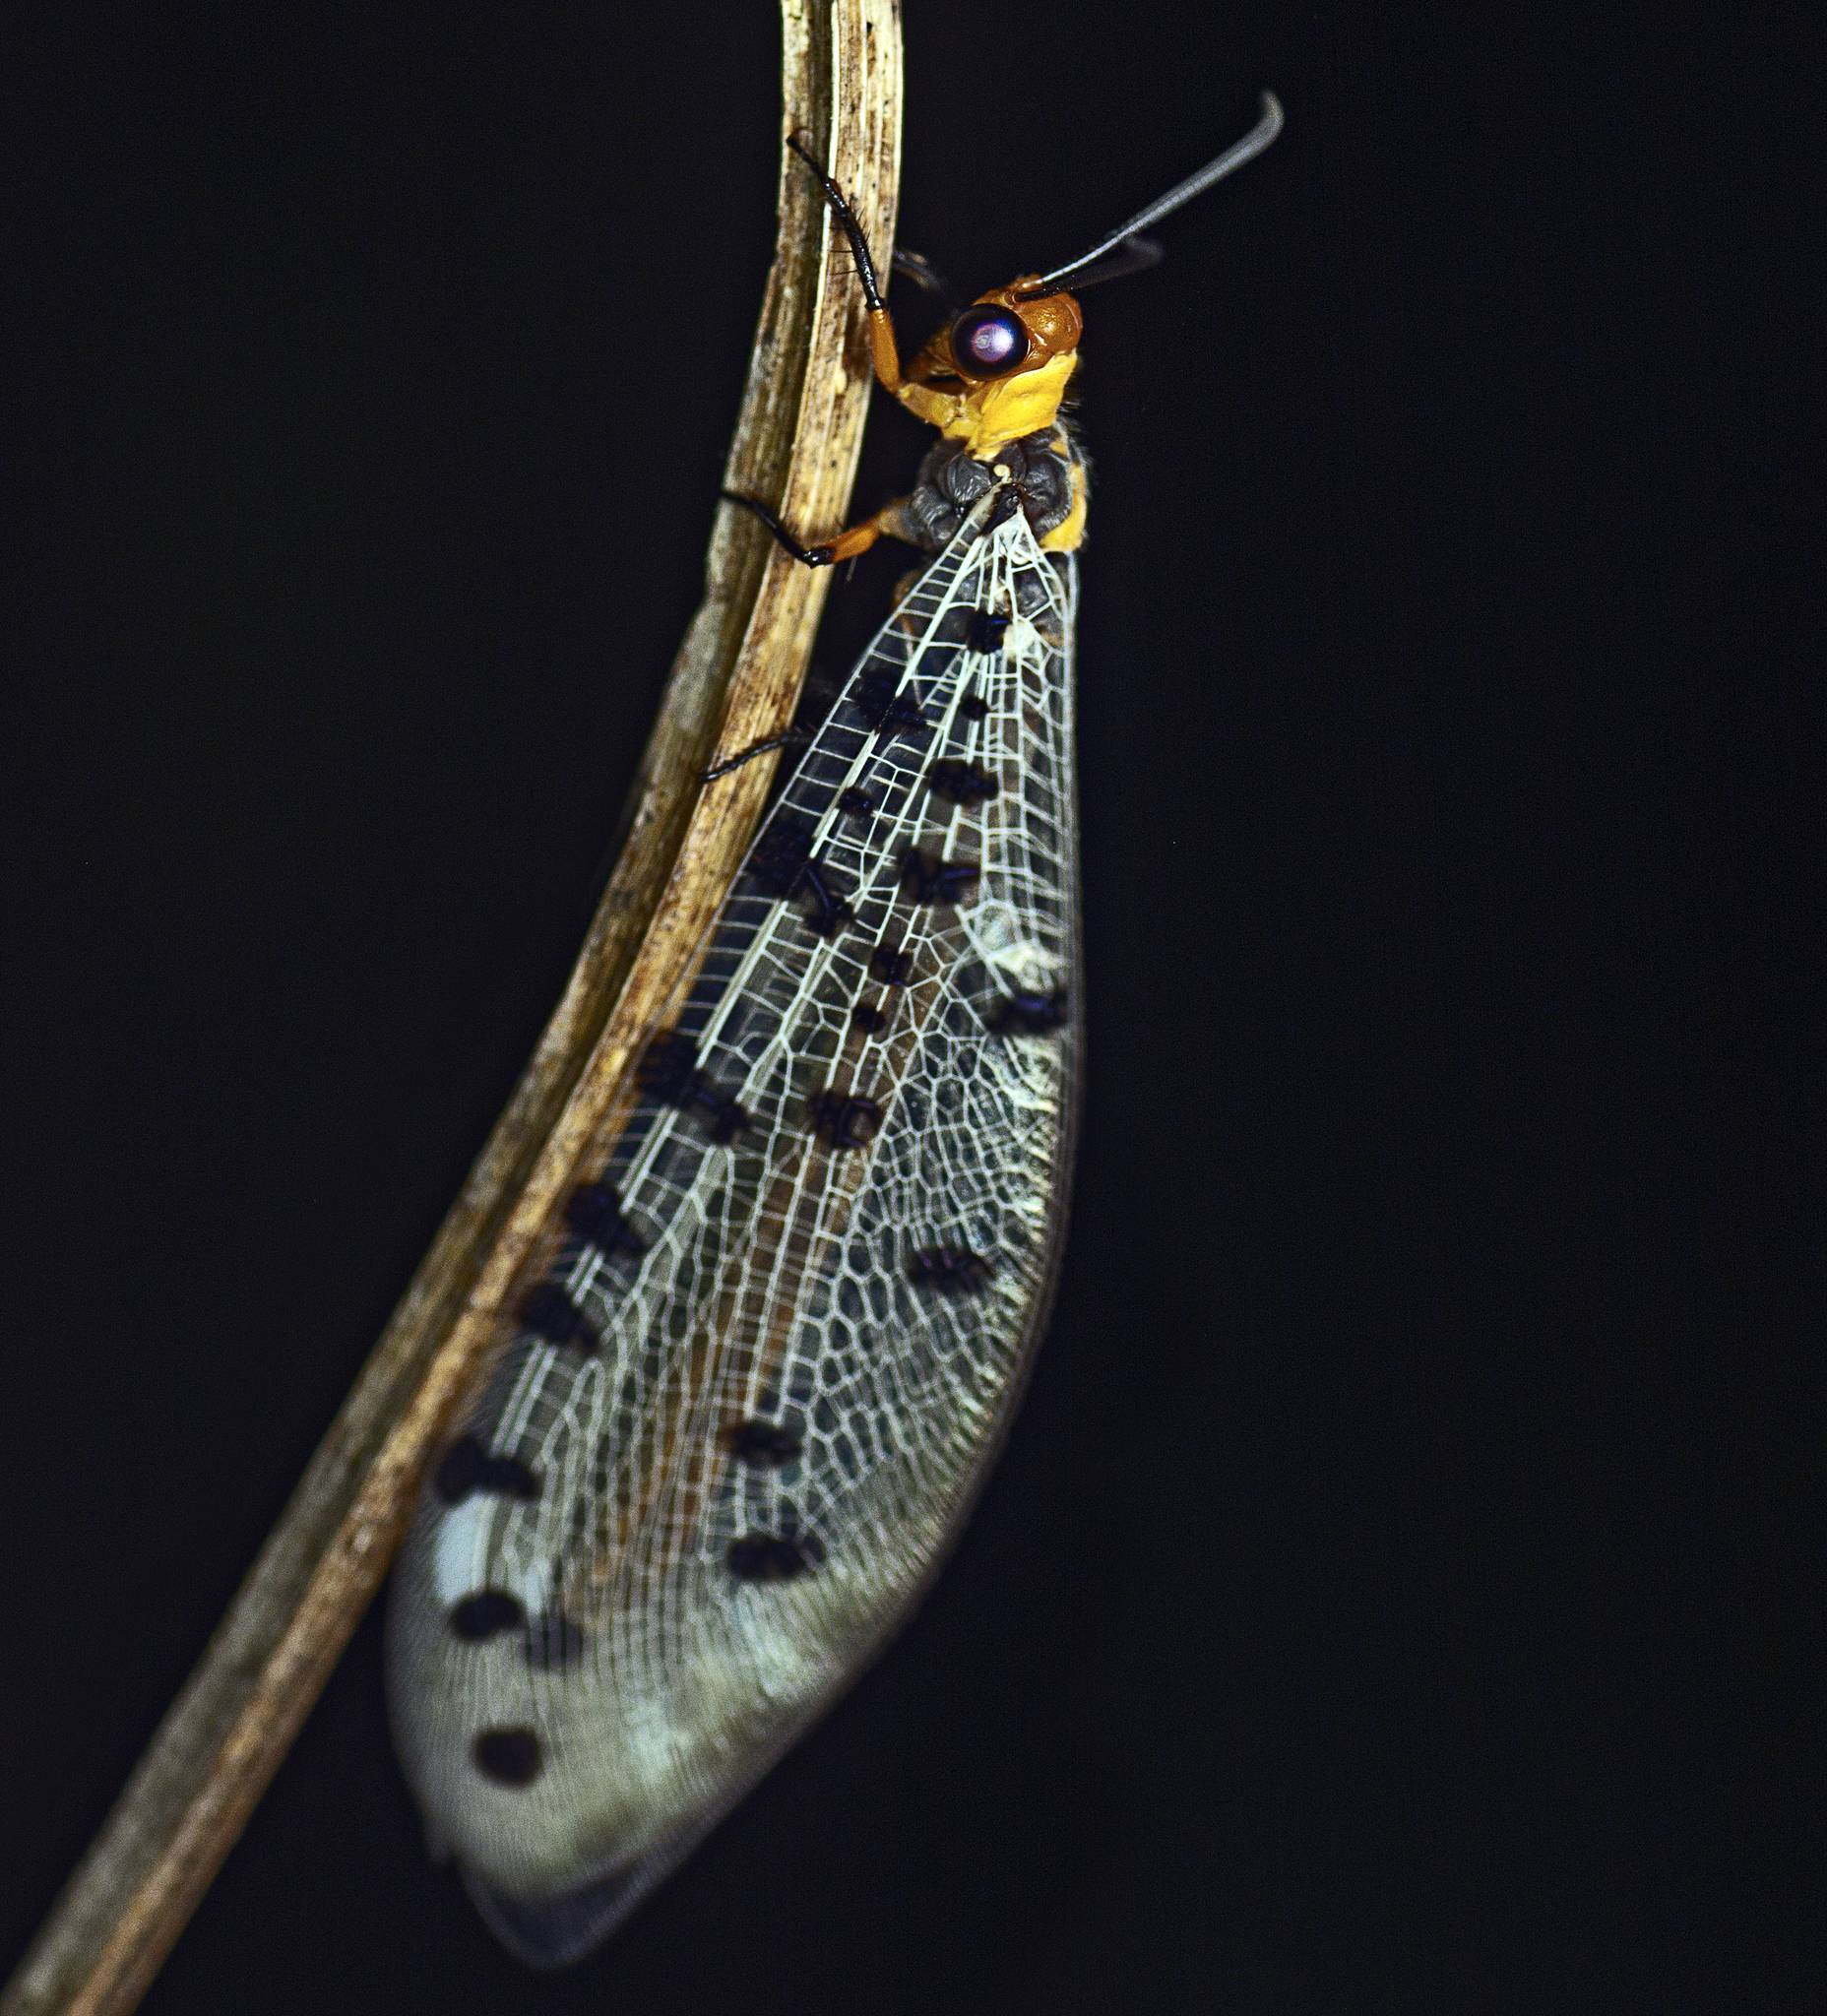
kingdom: Animalia
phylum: Arthropoda
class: Insecta
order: Neuroptera
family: Myrmeleontidae
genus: Myrmeleon
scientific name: Myrmeleon erythrocephalus
